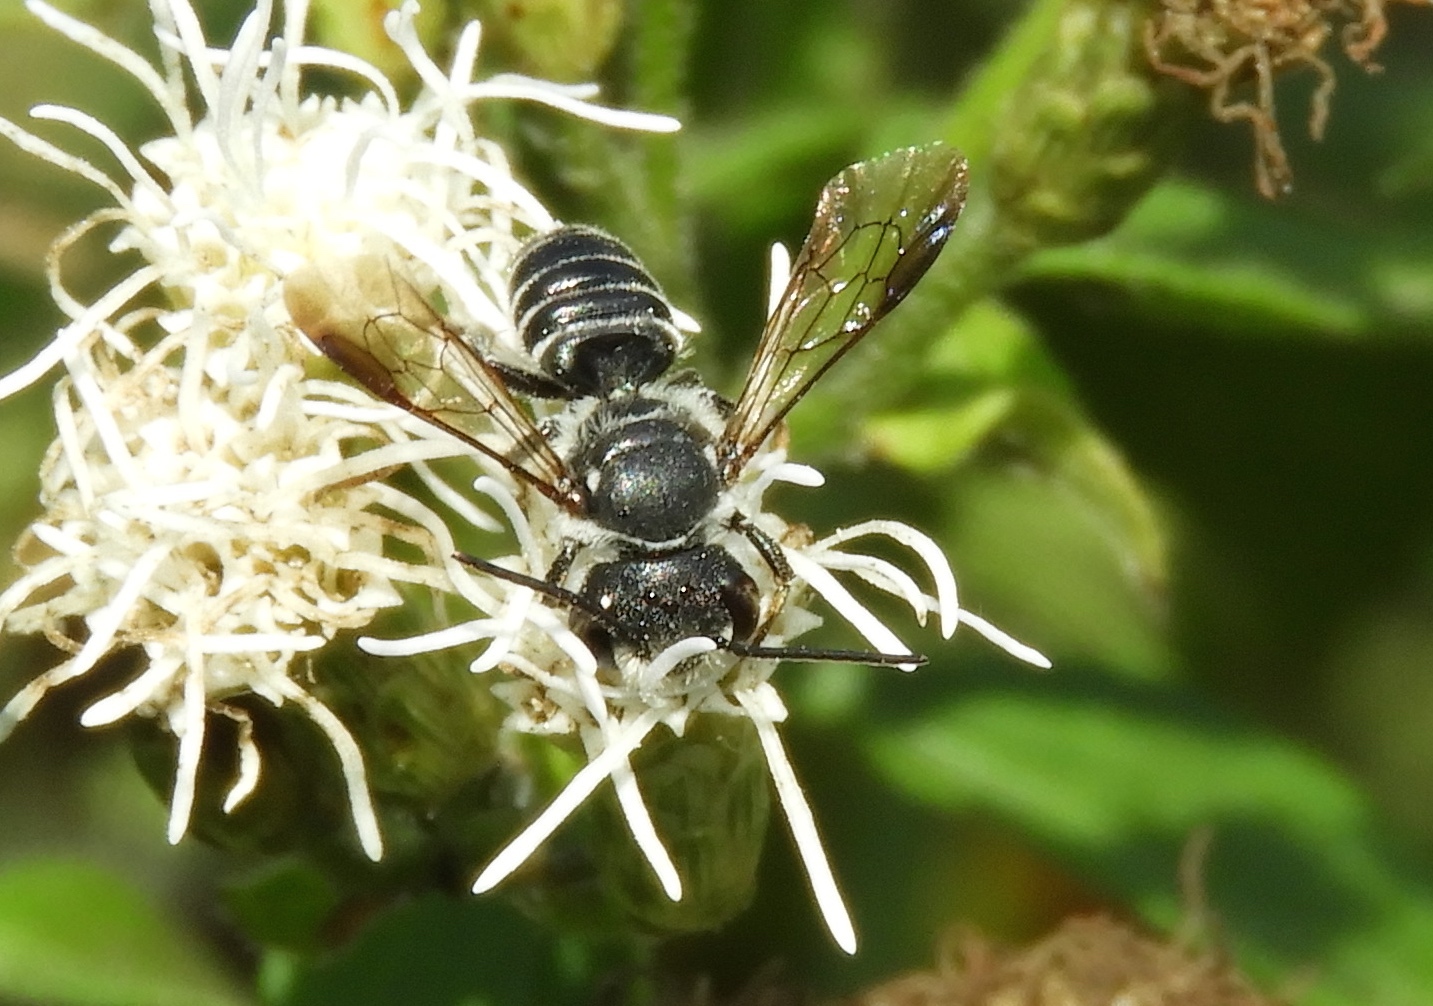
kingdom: Animalia
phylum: Arthropoda
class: Insecta
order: Hymenoptera
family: Megachilidae
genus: Megachile
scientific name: Megachile
